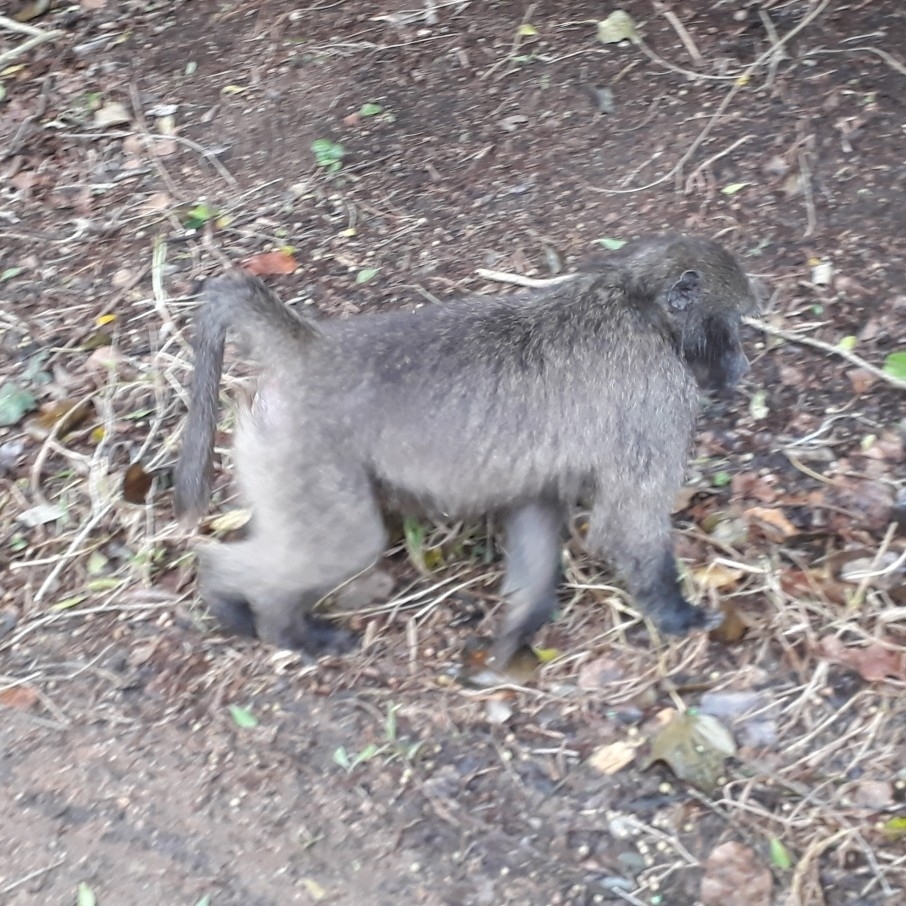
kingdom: Animalia
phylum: Chordata
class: Mammalia
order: Primates
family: Cercopithecidae
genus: Papio
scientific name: Papio ursinus
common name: Chacma baboon
